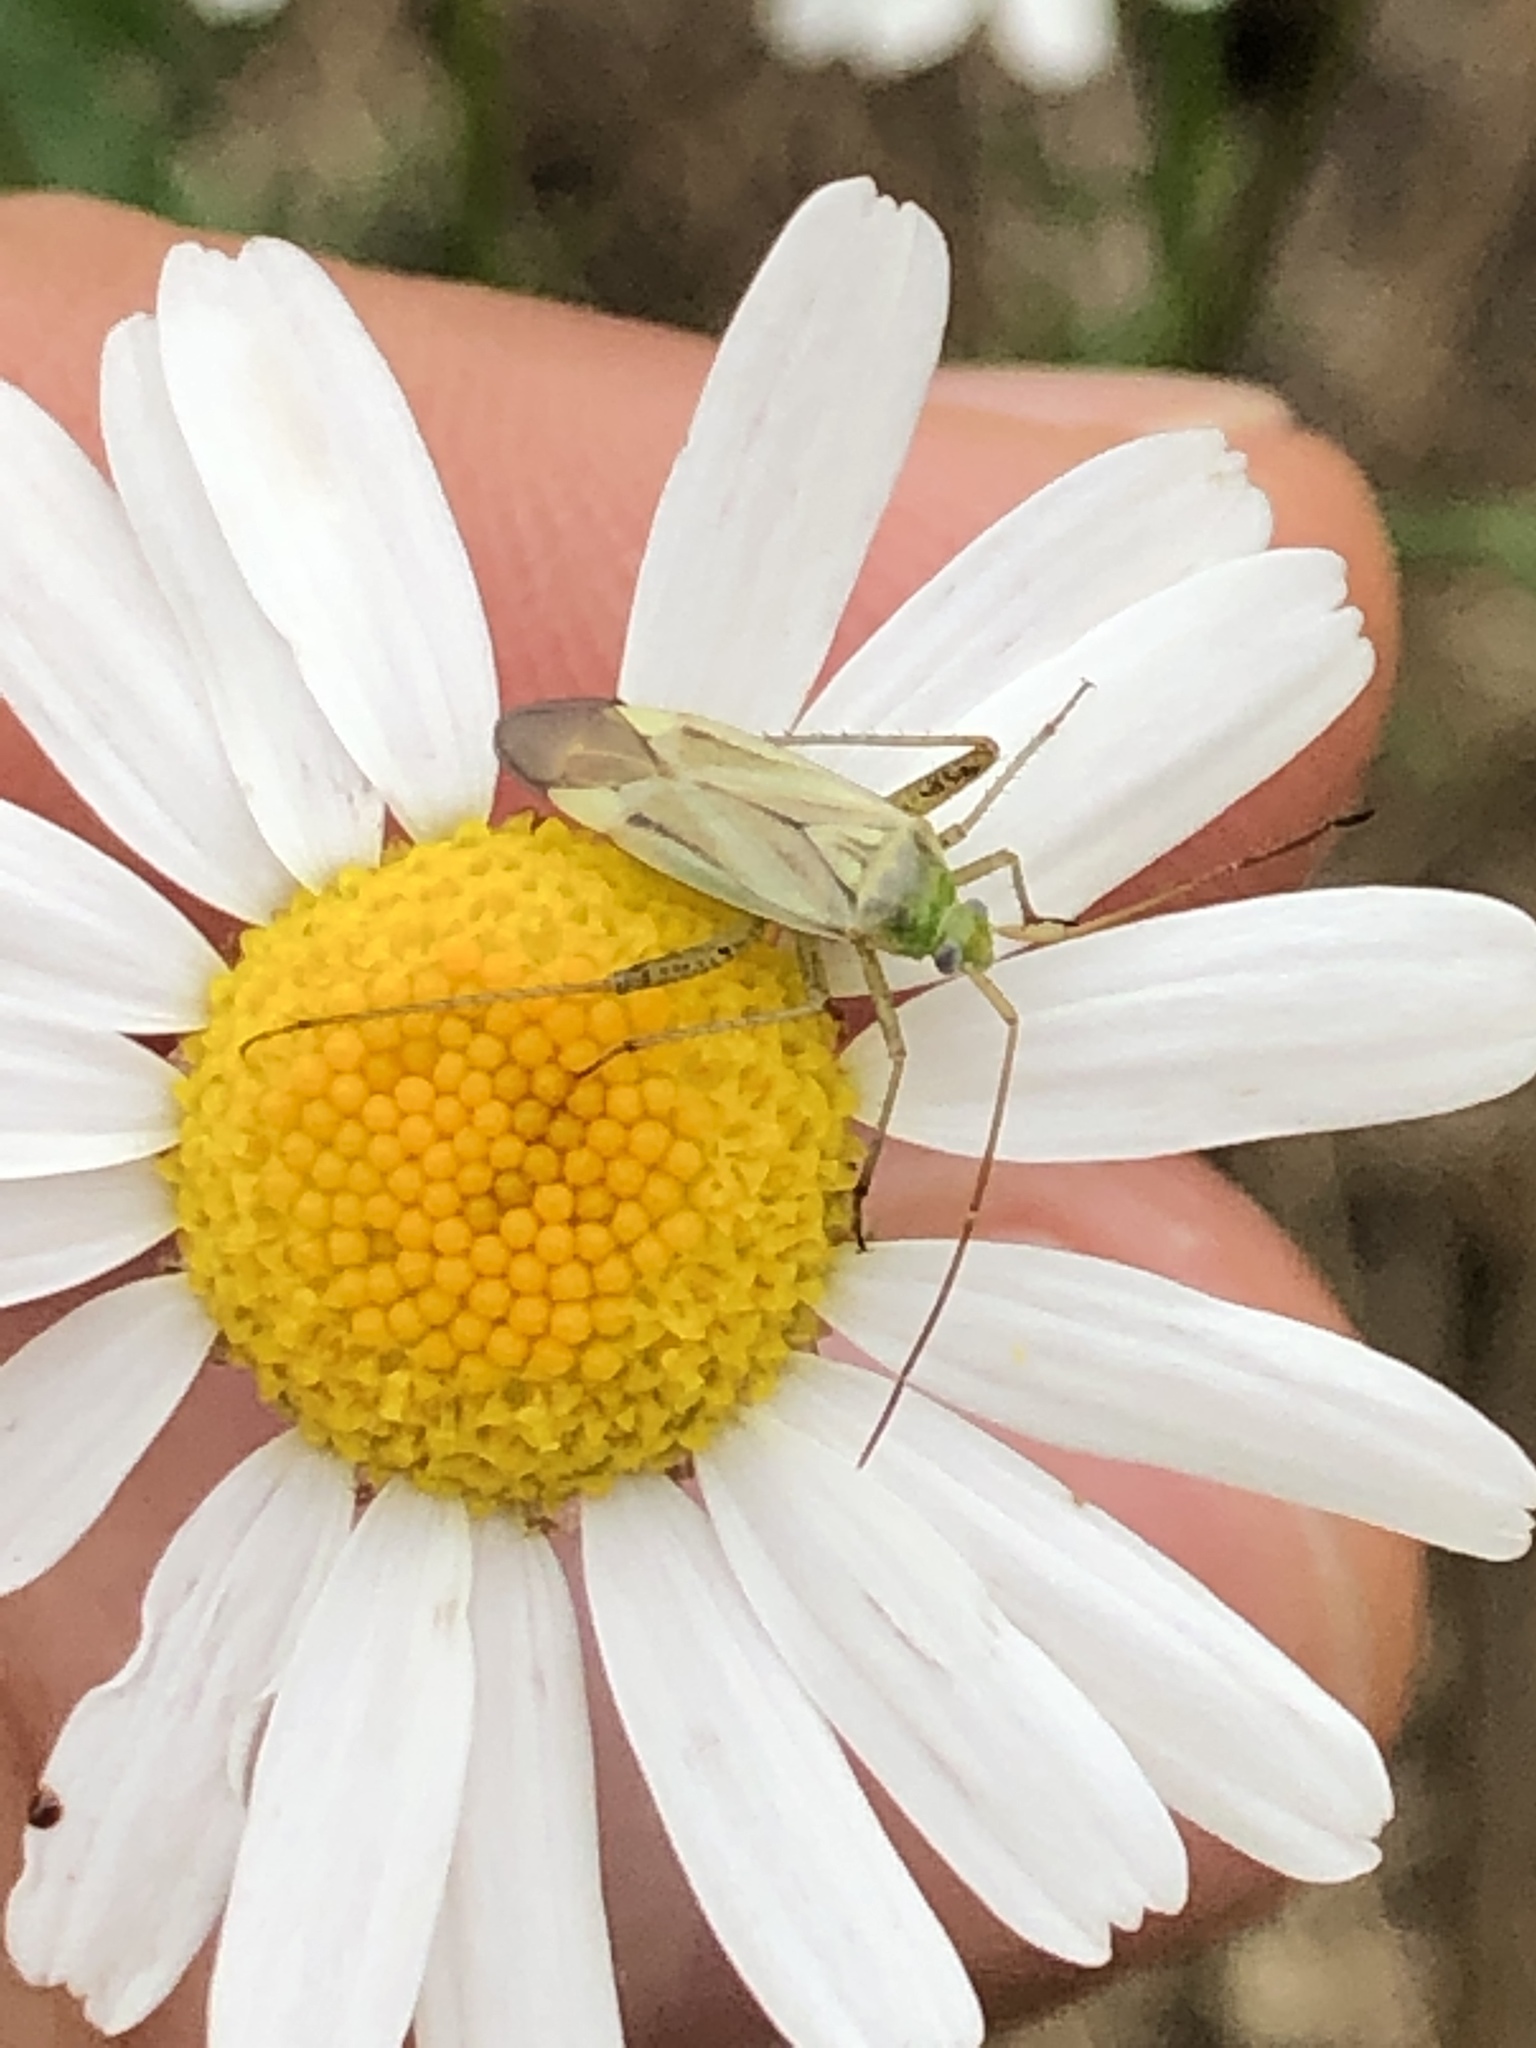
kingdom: Animalia
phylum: Arthropoda
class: Insecta
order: Hemiptera
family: Miridae
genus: Adelphocoris
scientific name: Adelphocoris lineolatus
